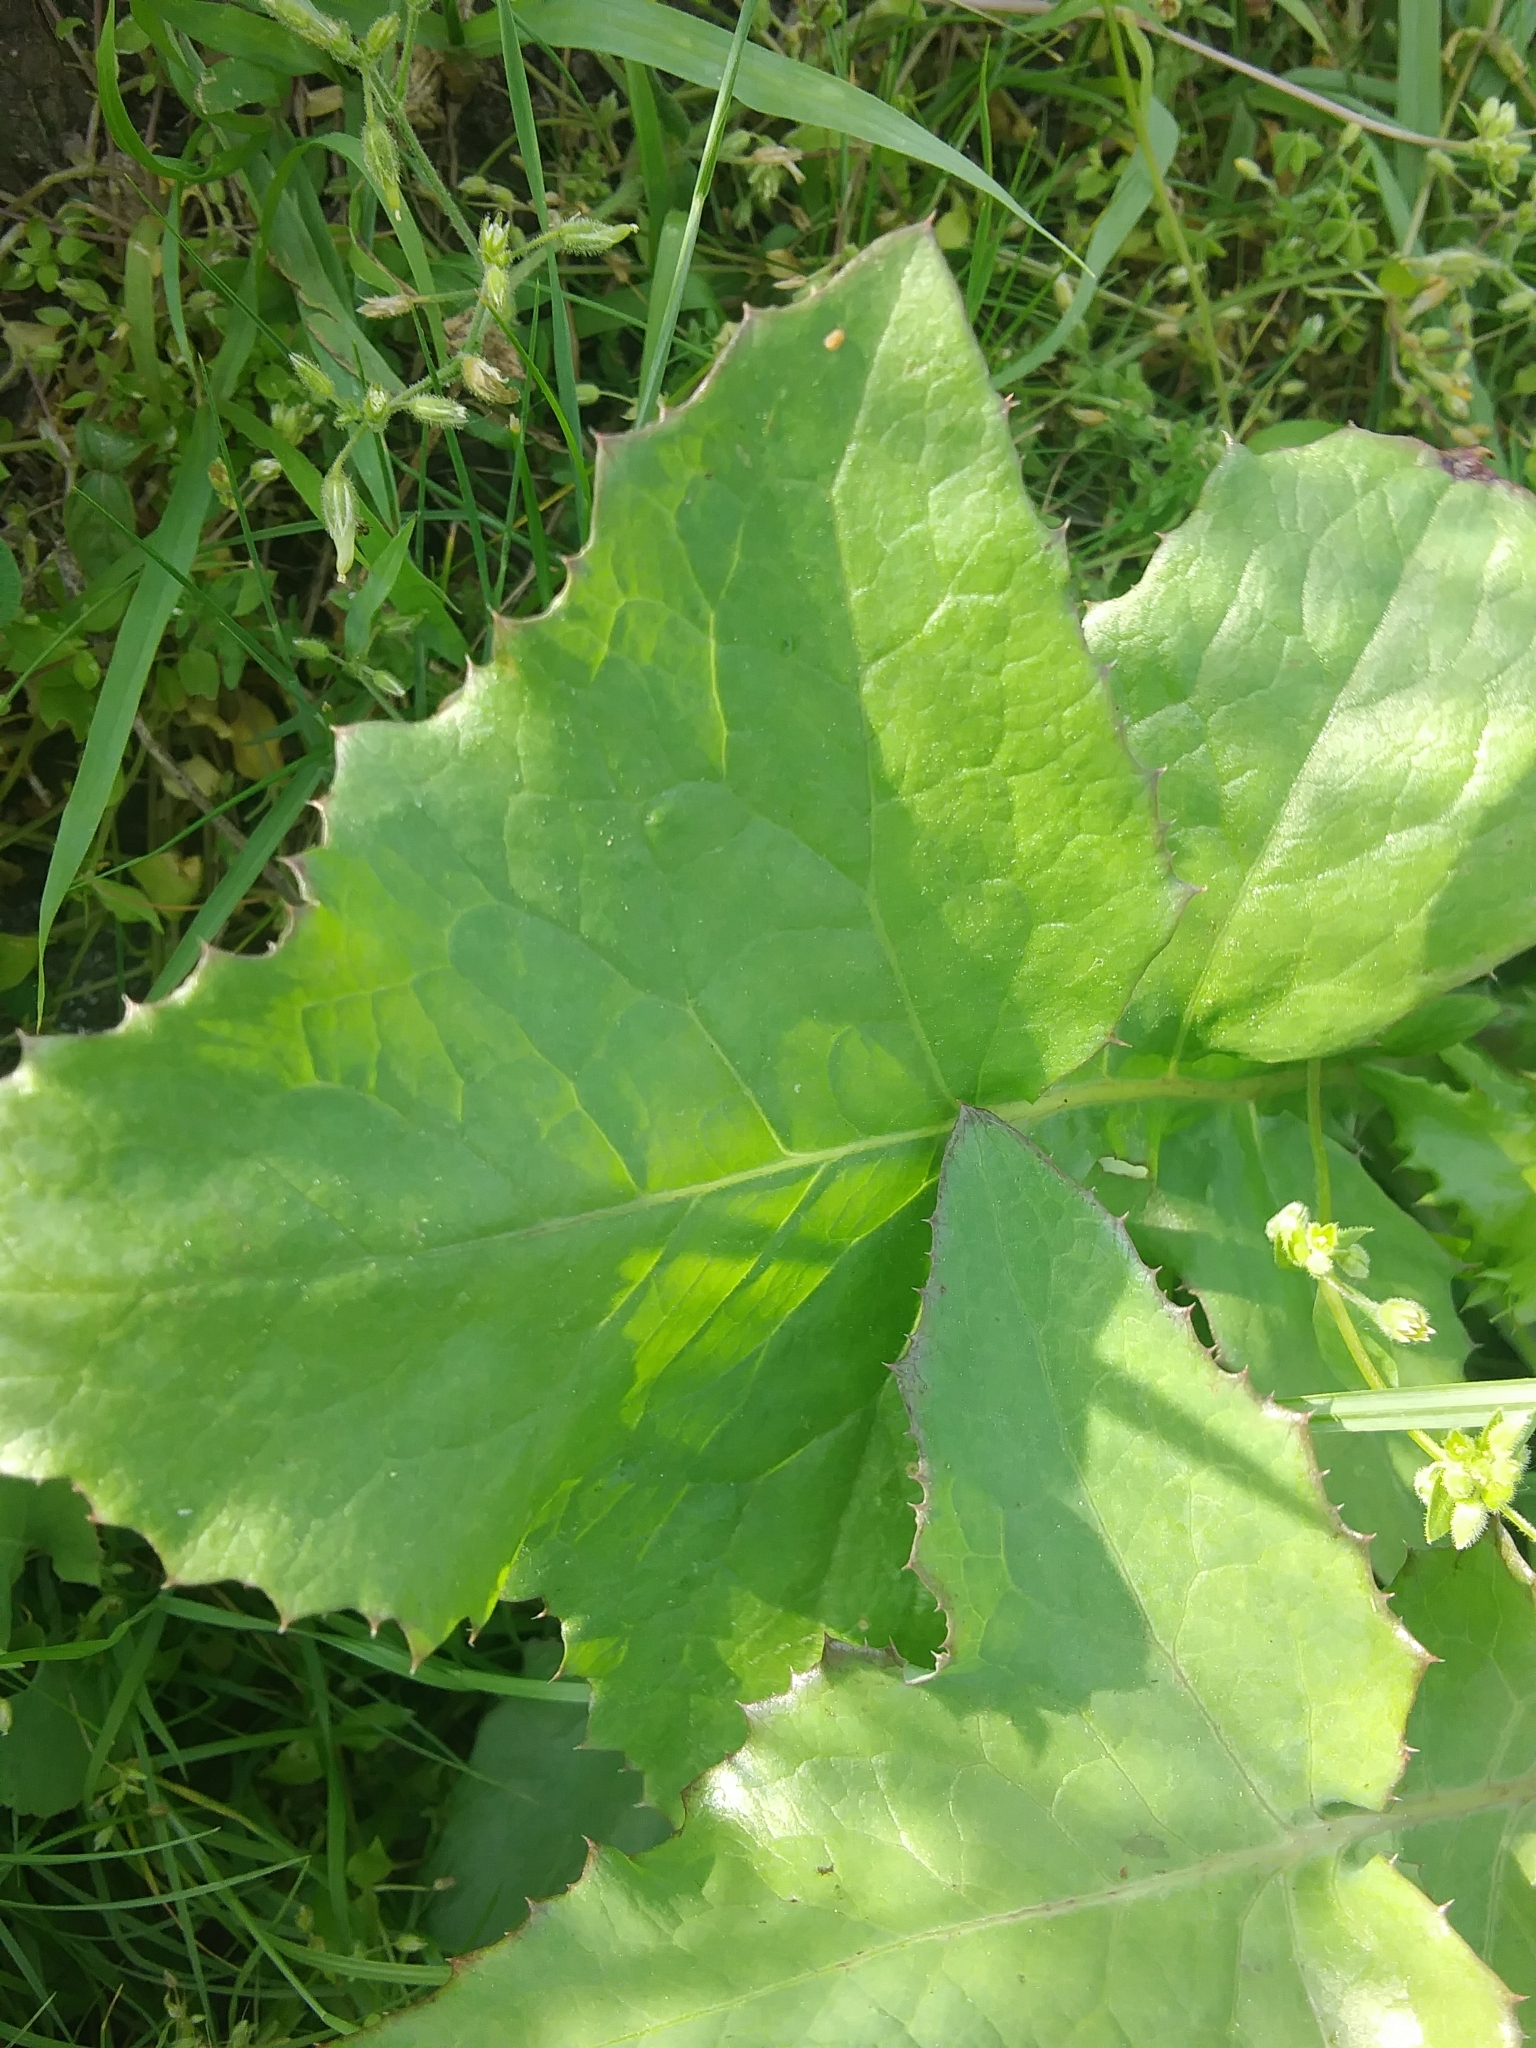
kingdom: Plantae
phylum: Tracheophyta
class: Magnoliopsida
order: Asterales
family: Asteraceae
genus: Sonchus
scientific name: Sonchus oleraceus
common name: Common sowthistle
